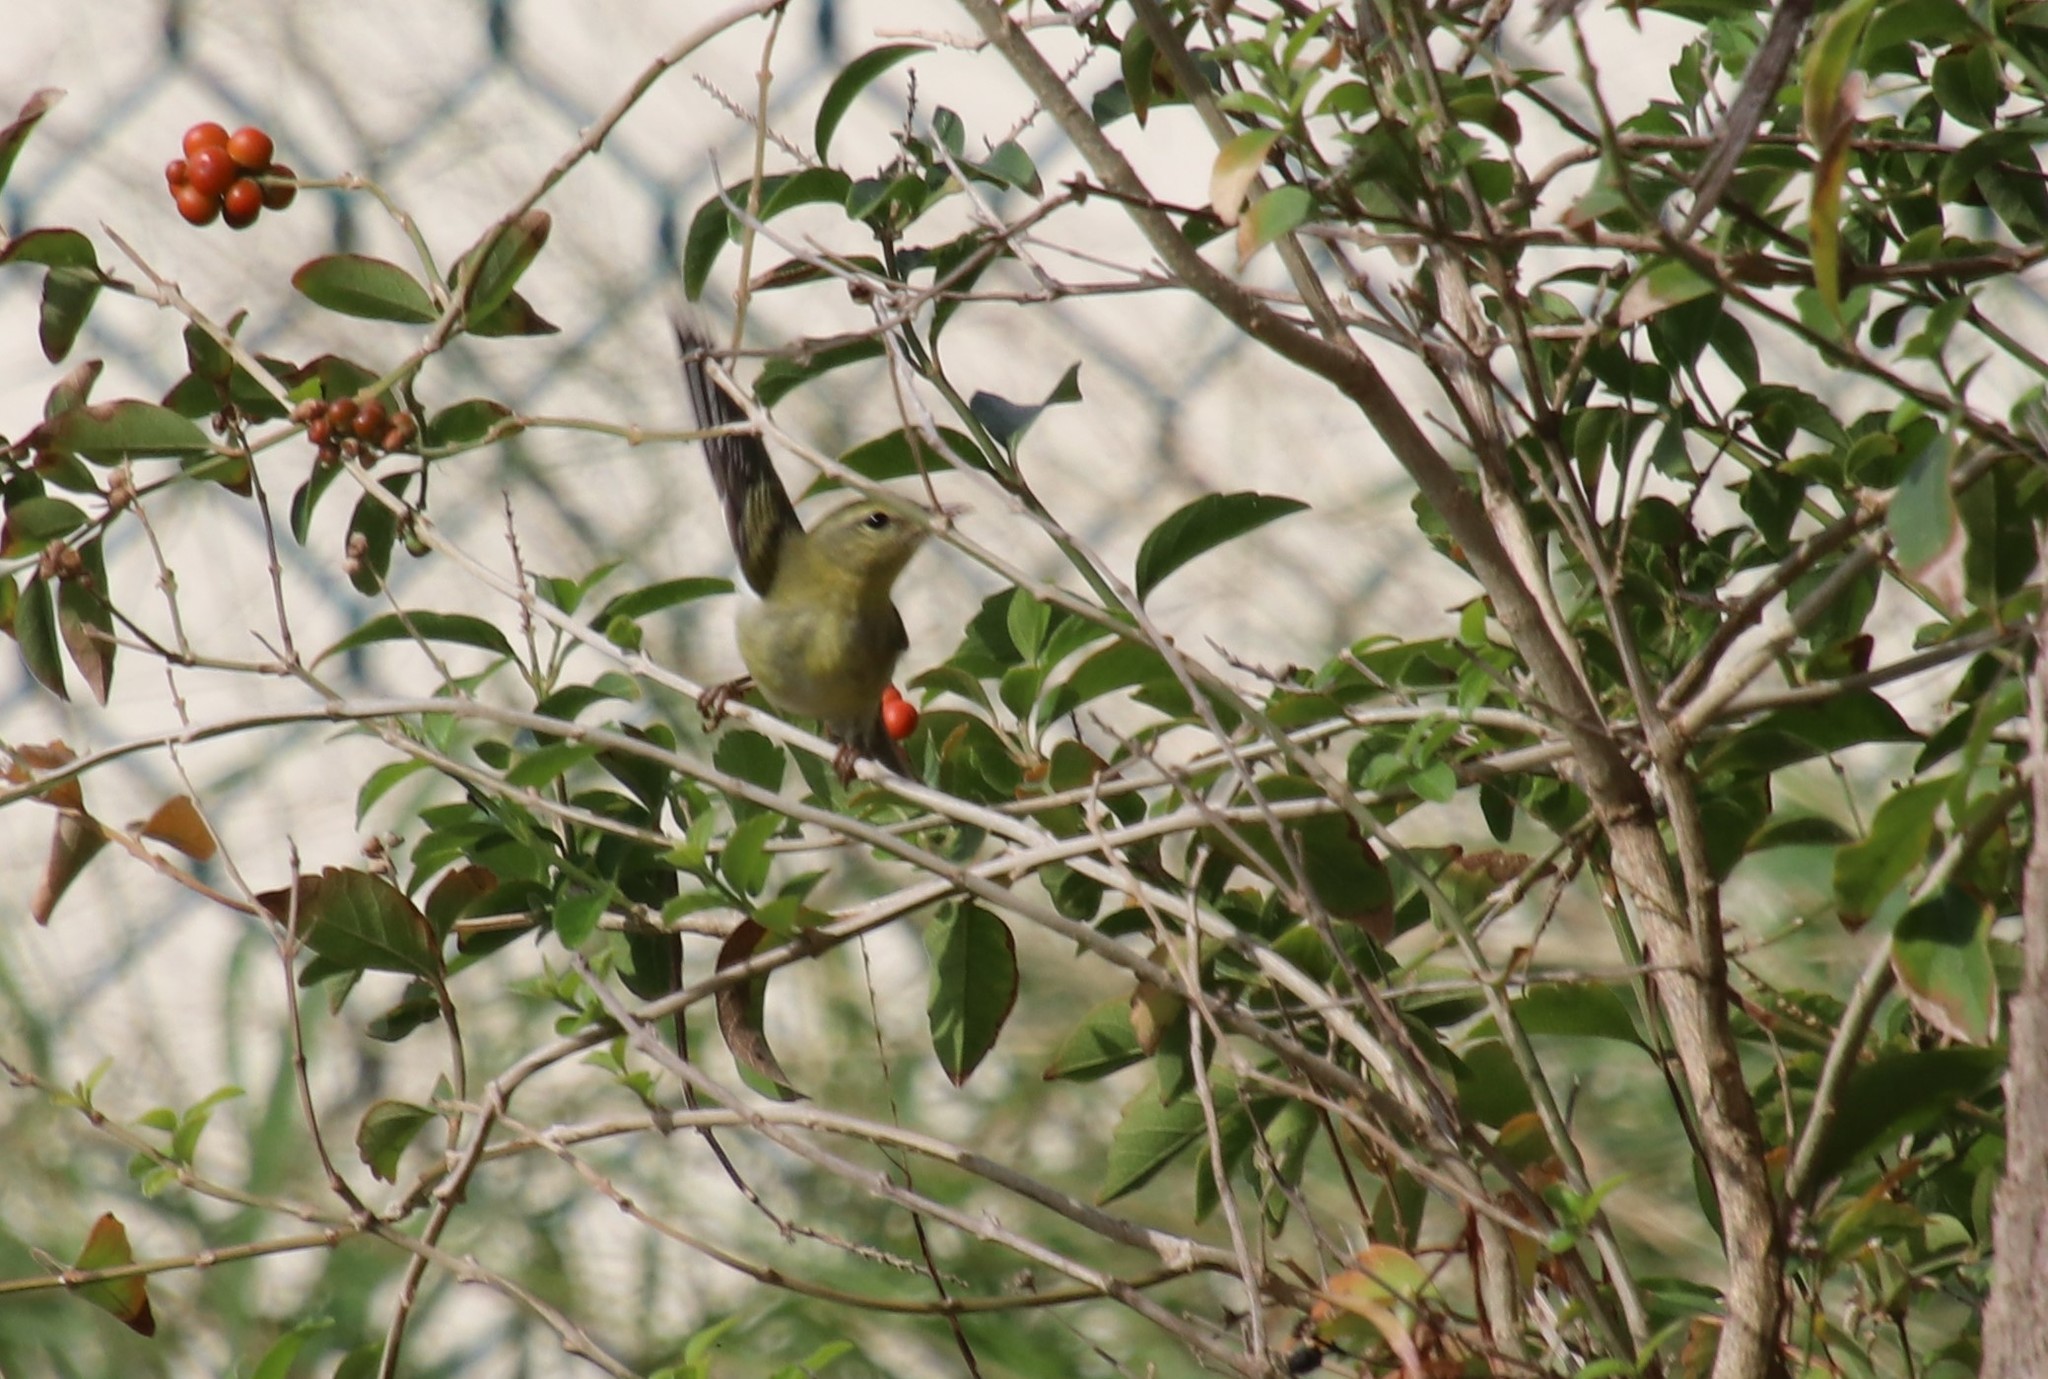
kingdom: Animalia
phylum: Chordata
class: Aves
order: Passeriformes
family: Parulidae
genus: Leiothlypis
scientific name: Leiothlypis celata
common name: Orange-crowned warbler
